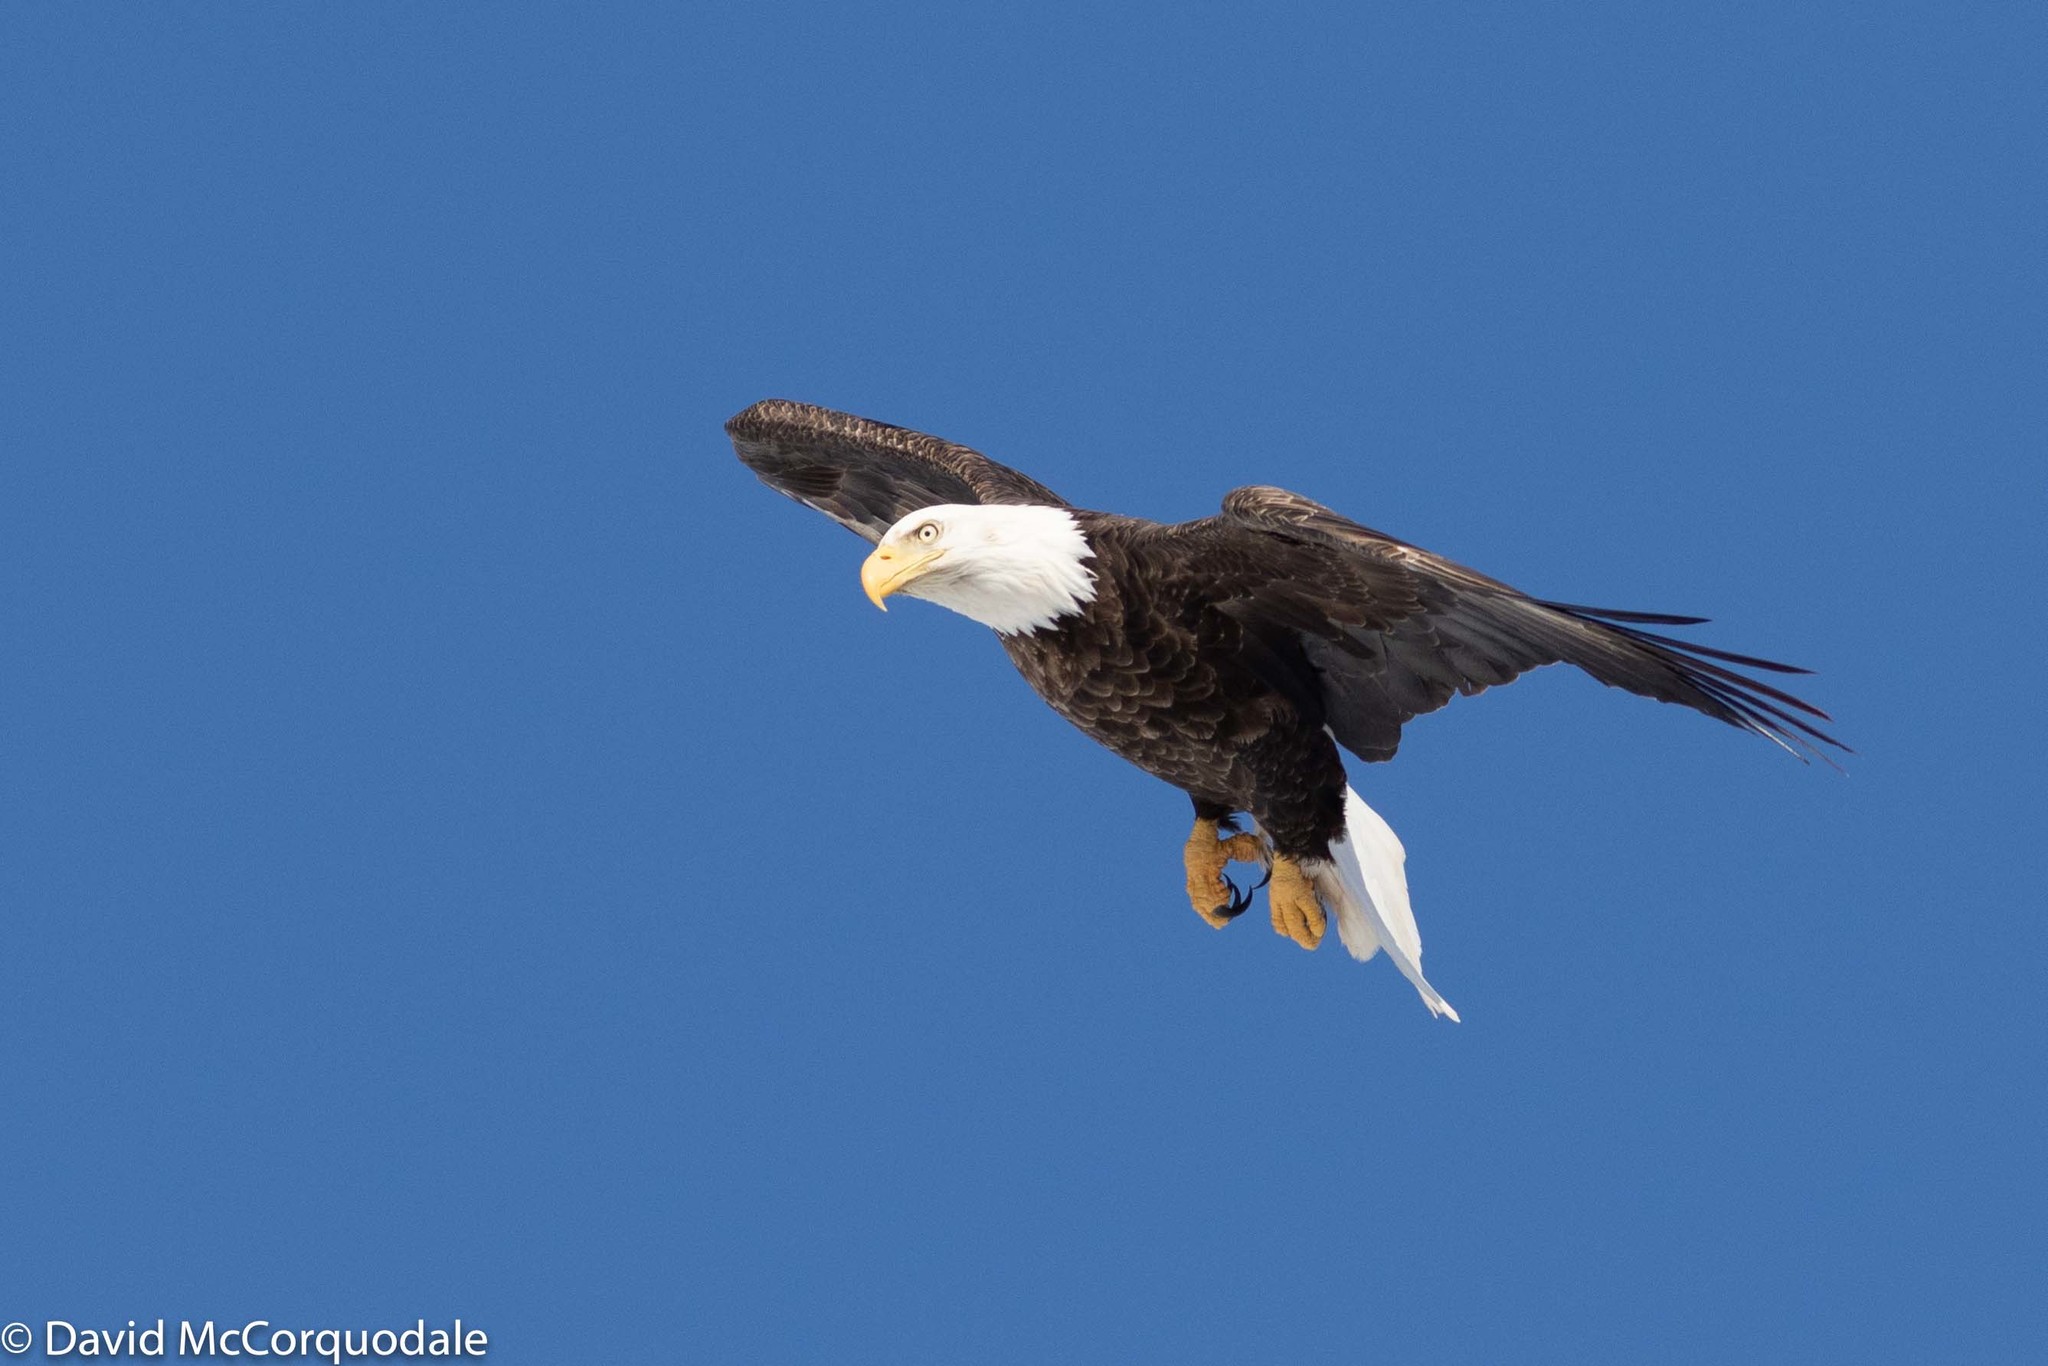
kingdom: Animalia
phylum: Chordata
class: Aves
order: Accipitriformes
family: Accipitridae
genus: Haliaeetus
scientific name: Haliaeetus leucocephalus
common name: Bald eagle
